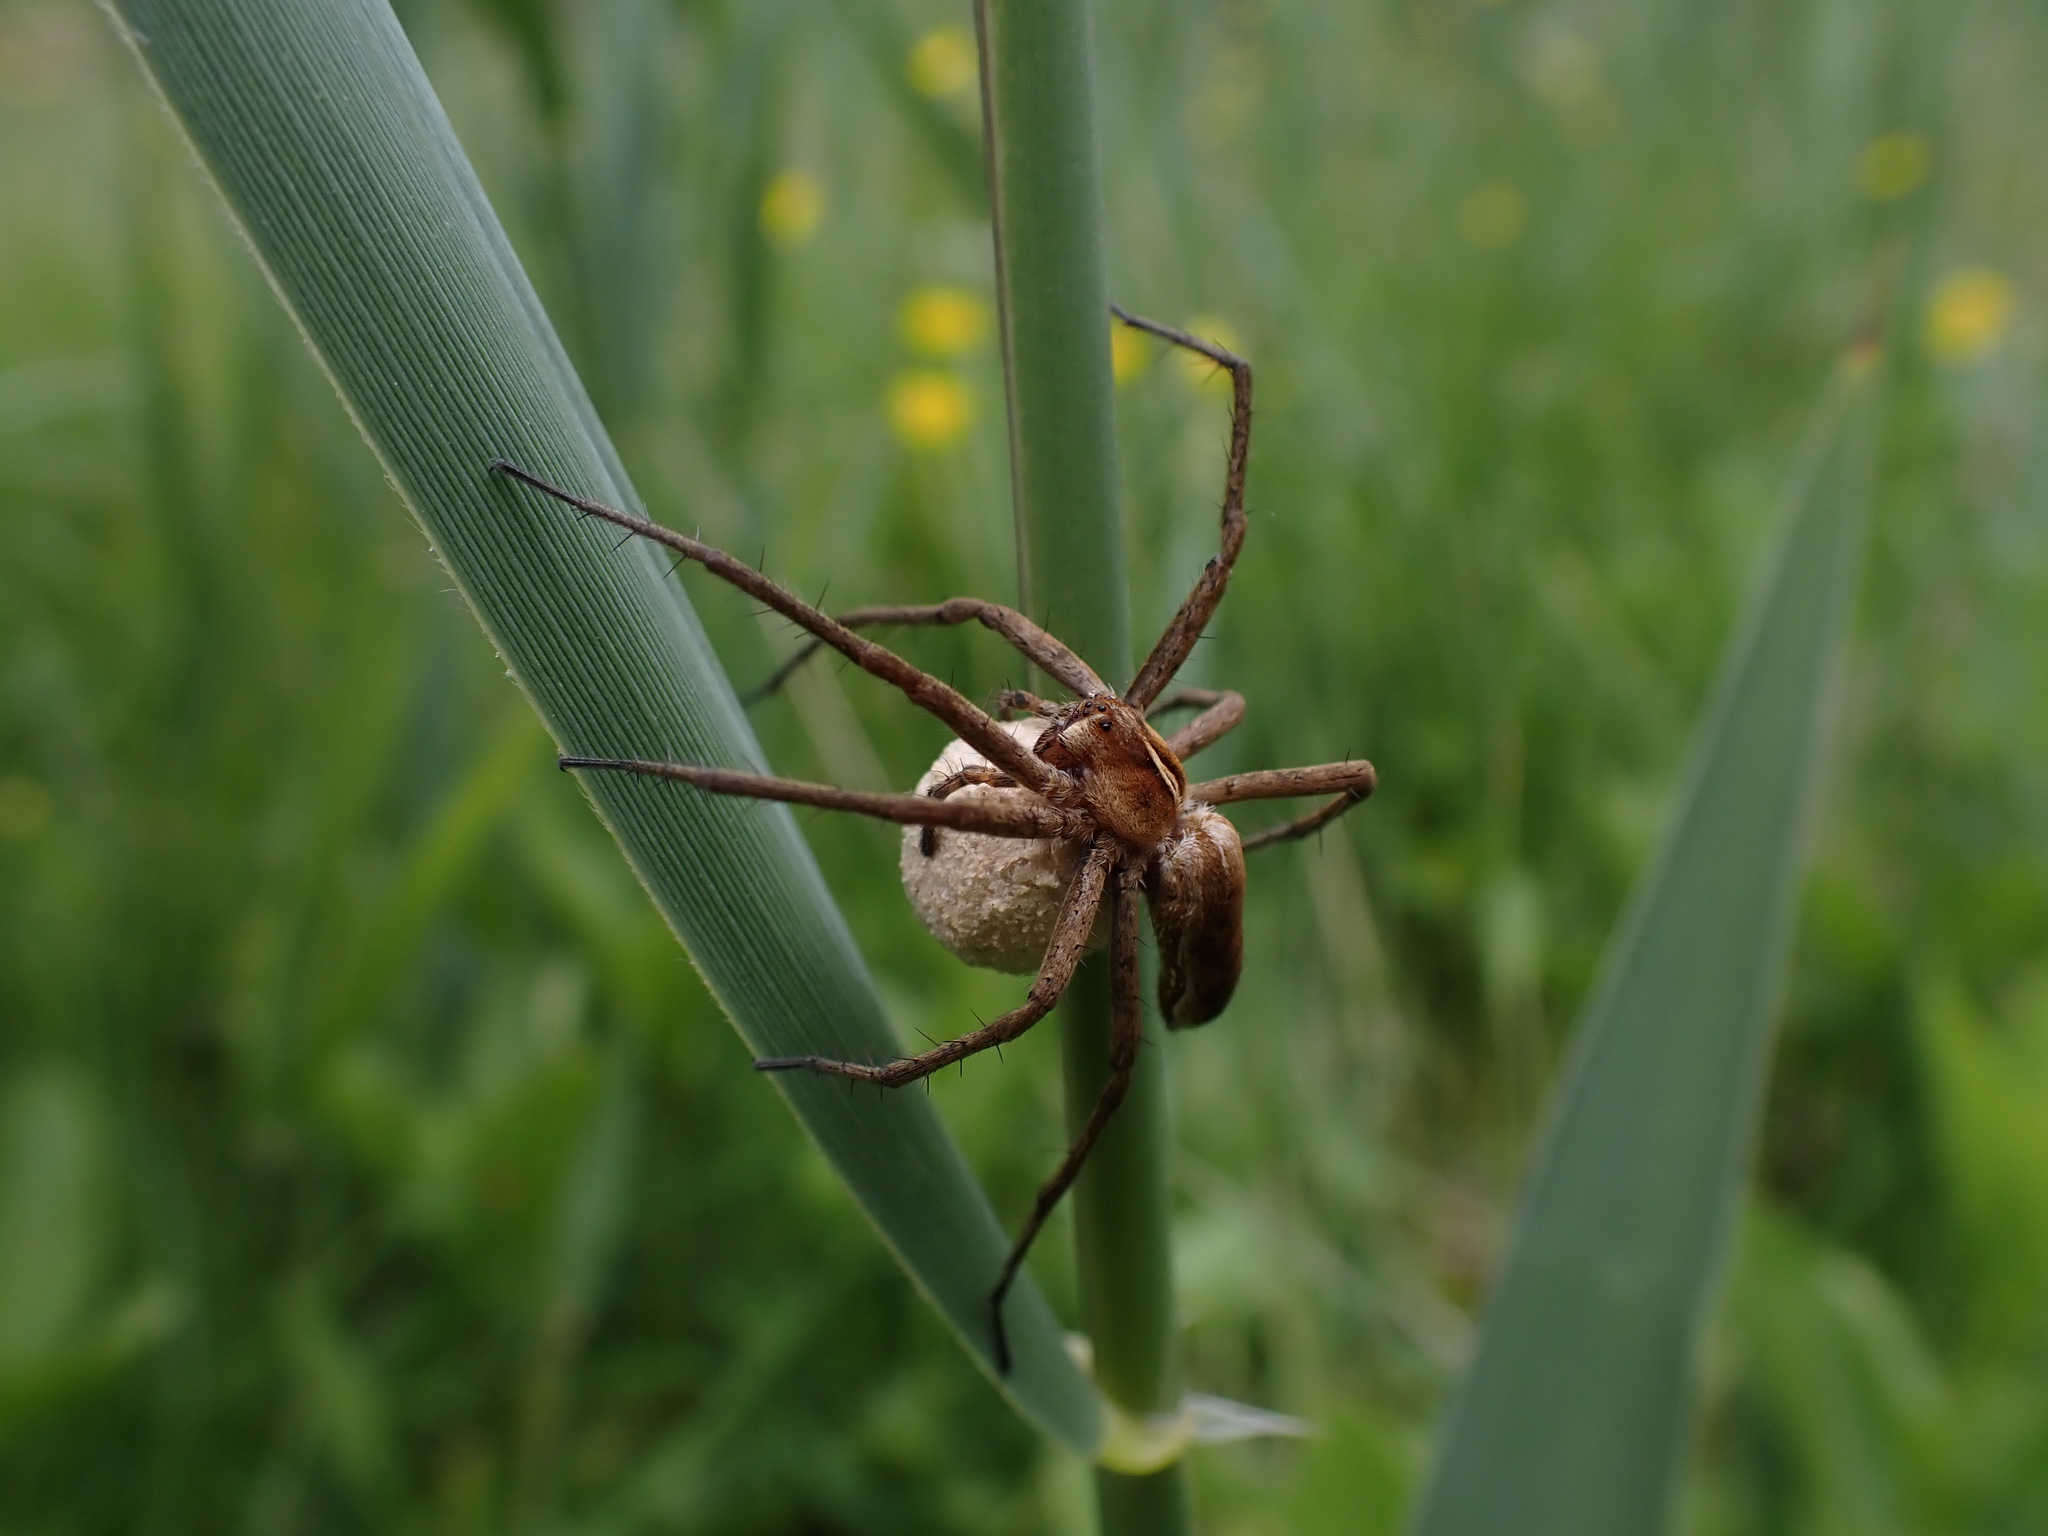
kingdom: Animalia
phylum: Arthropoda
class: Arachnida
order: Araneae
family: Pisauridae
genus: Pisaura
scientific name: Pisaura mirabilis
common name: Tent spider
